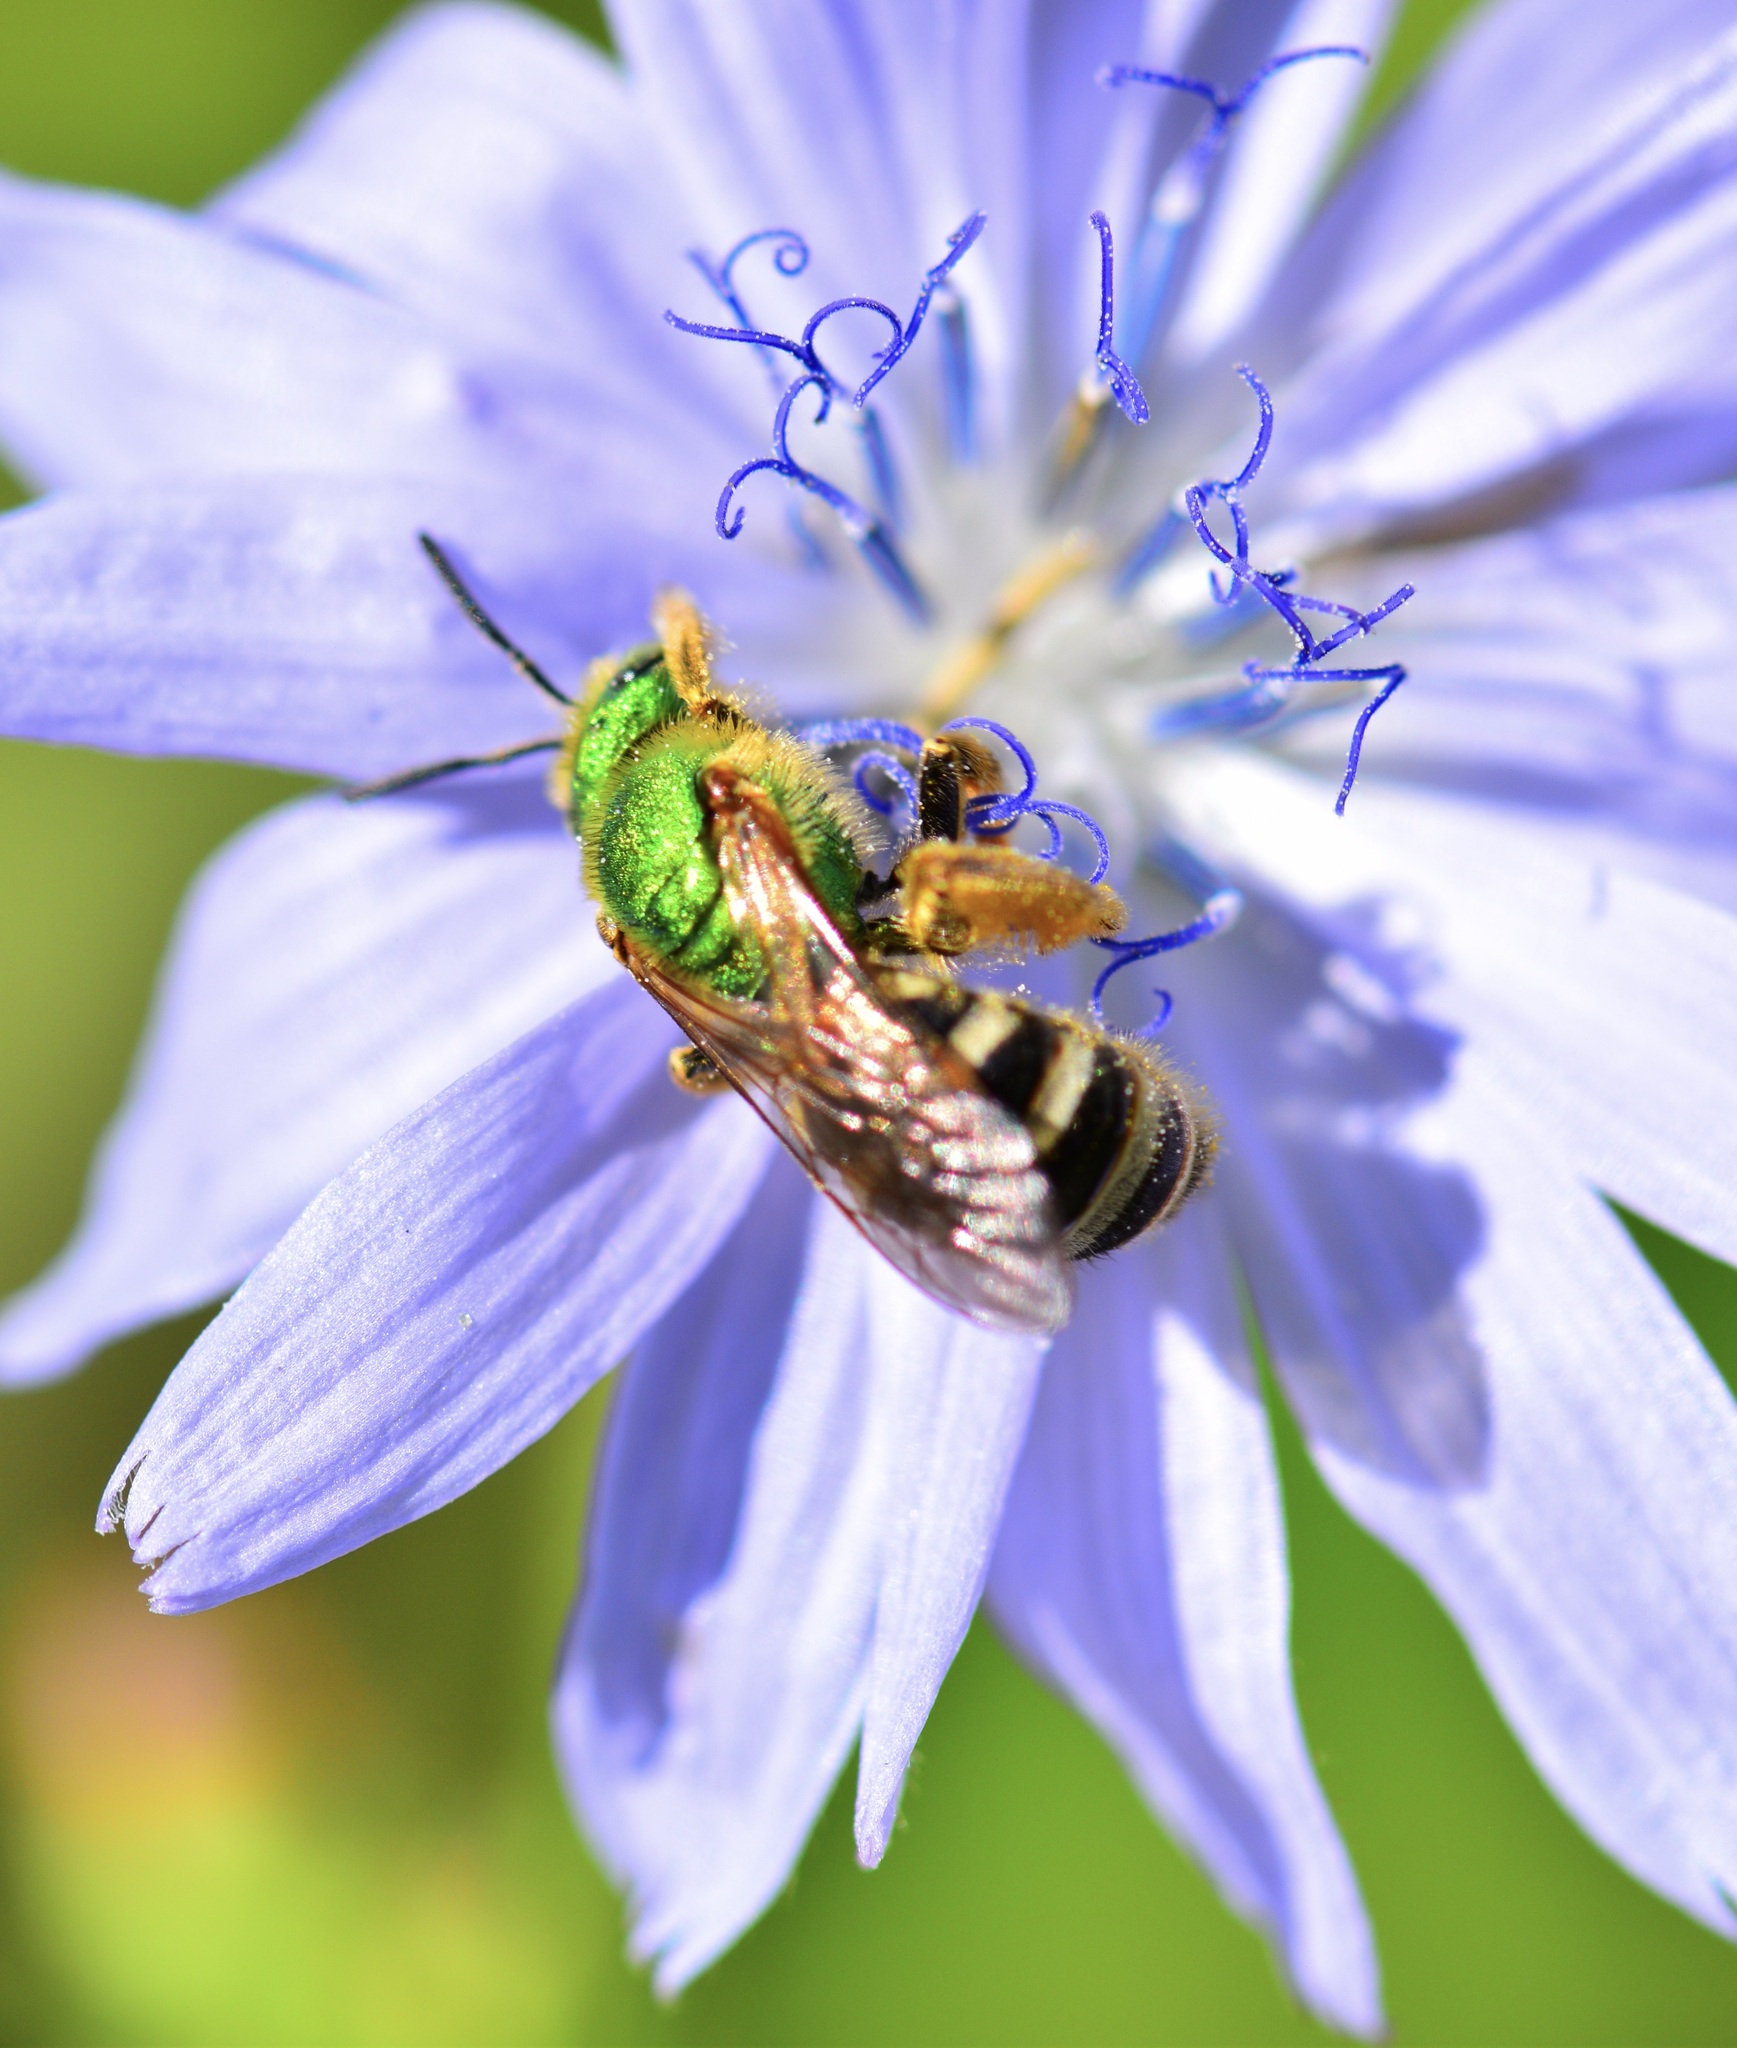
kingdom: Animalia
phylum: Arthropoda
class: Insecta
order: Hymenoptera
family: Halictidae
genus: Agapostemon
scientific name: Agapostemon virescens
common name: Bicolored striped sweat bee
